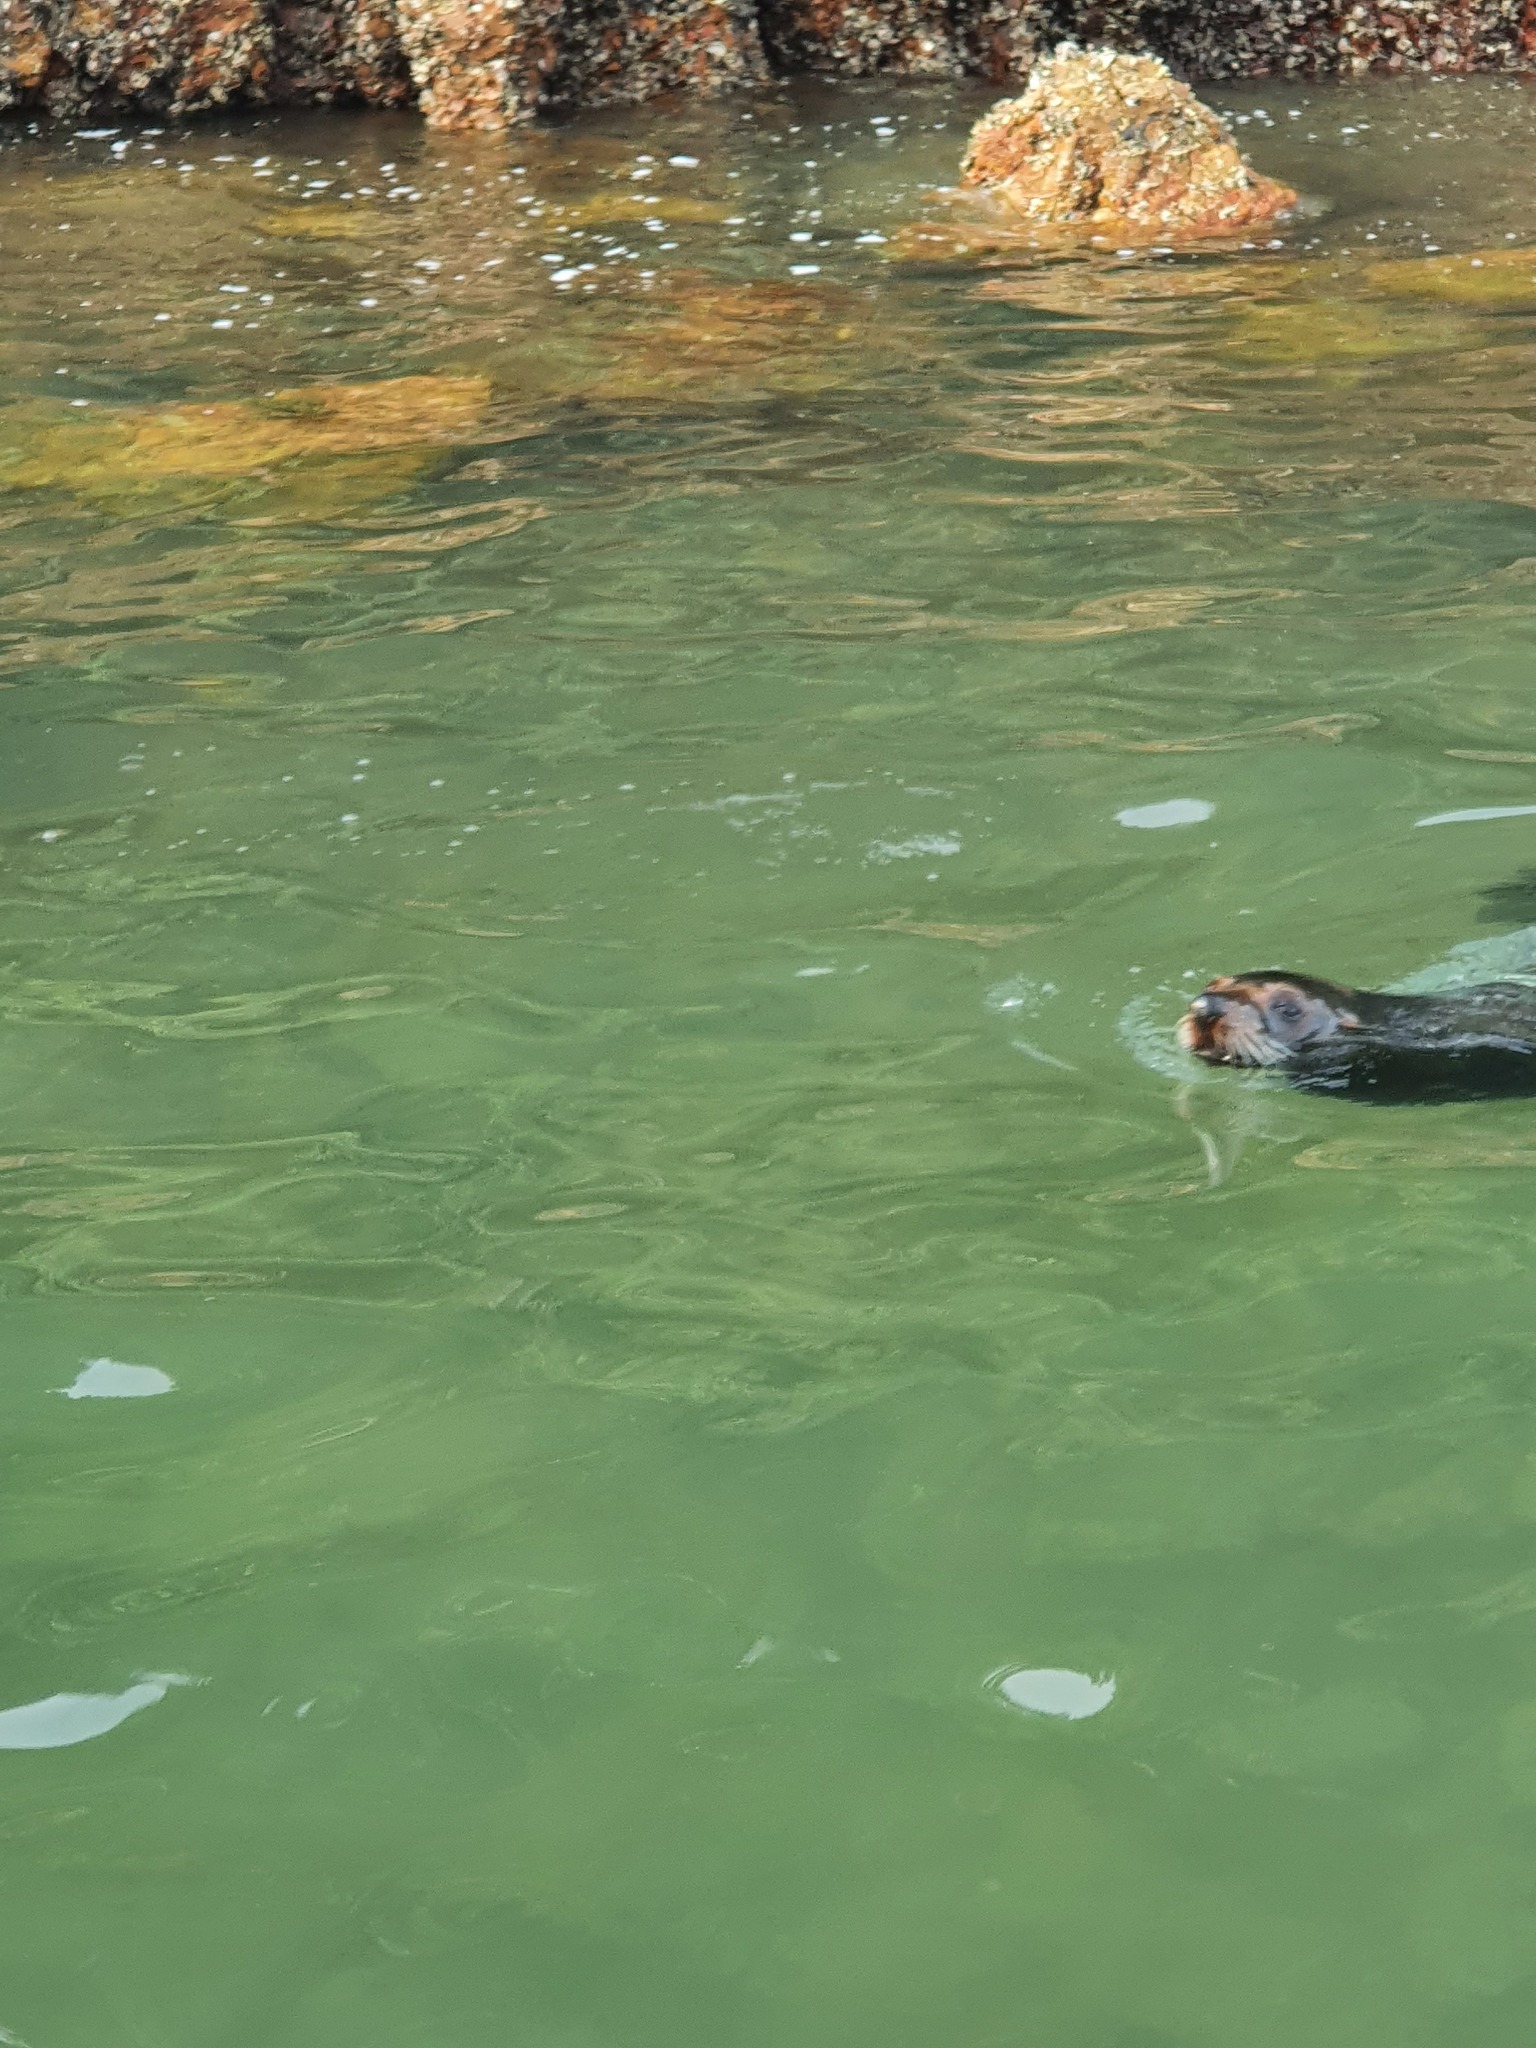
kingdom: Animalia
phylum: Chordata
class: Mammalia
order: Carnivora
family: Otariidae
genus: Arctocephalus
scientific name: Arctocephalus forsteri
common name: New zealand fur seal
